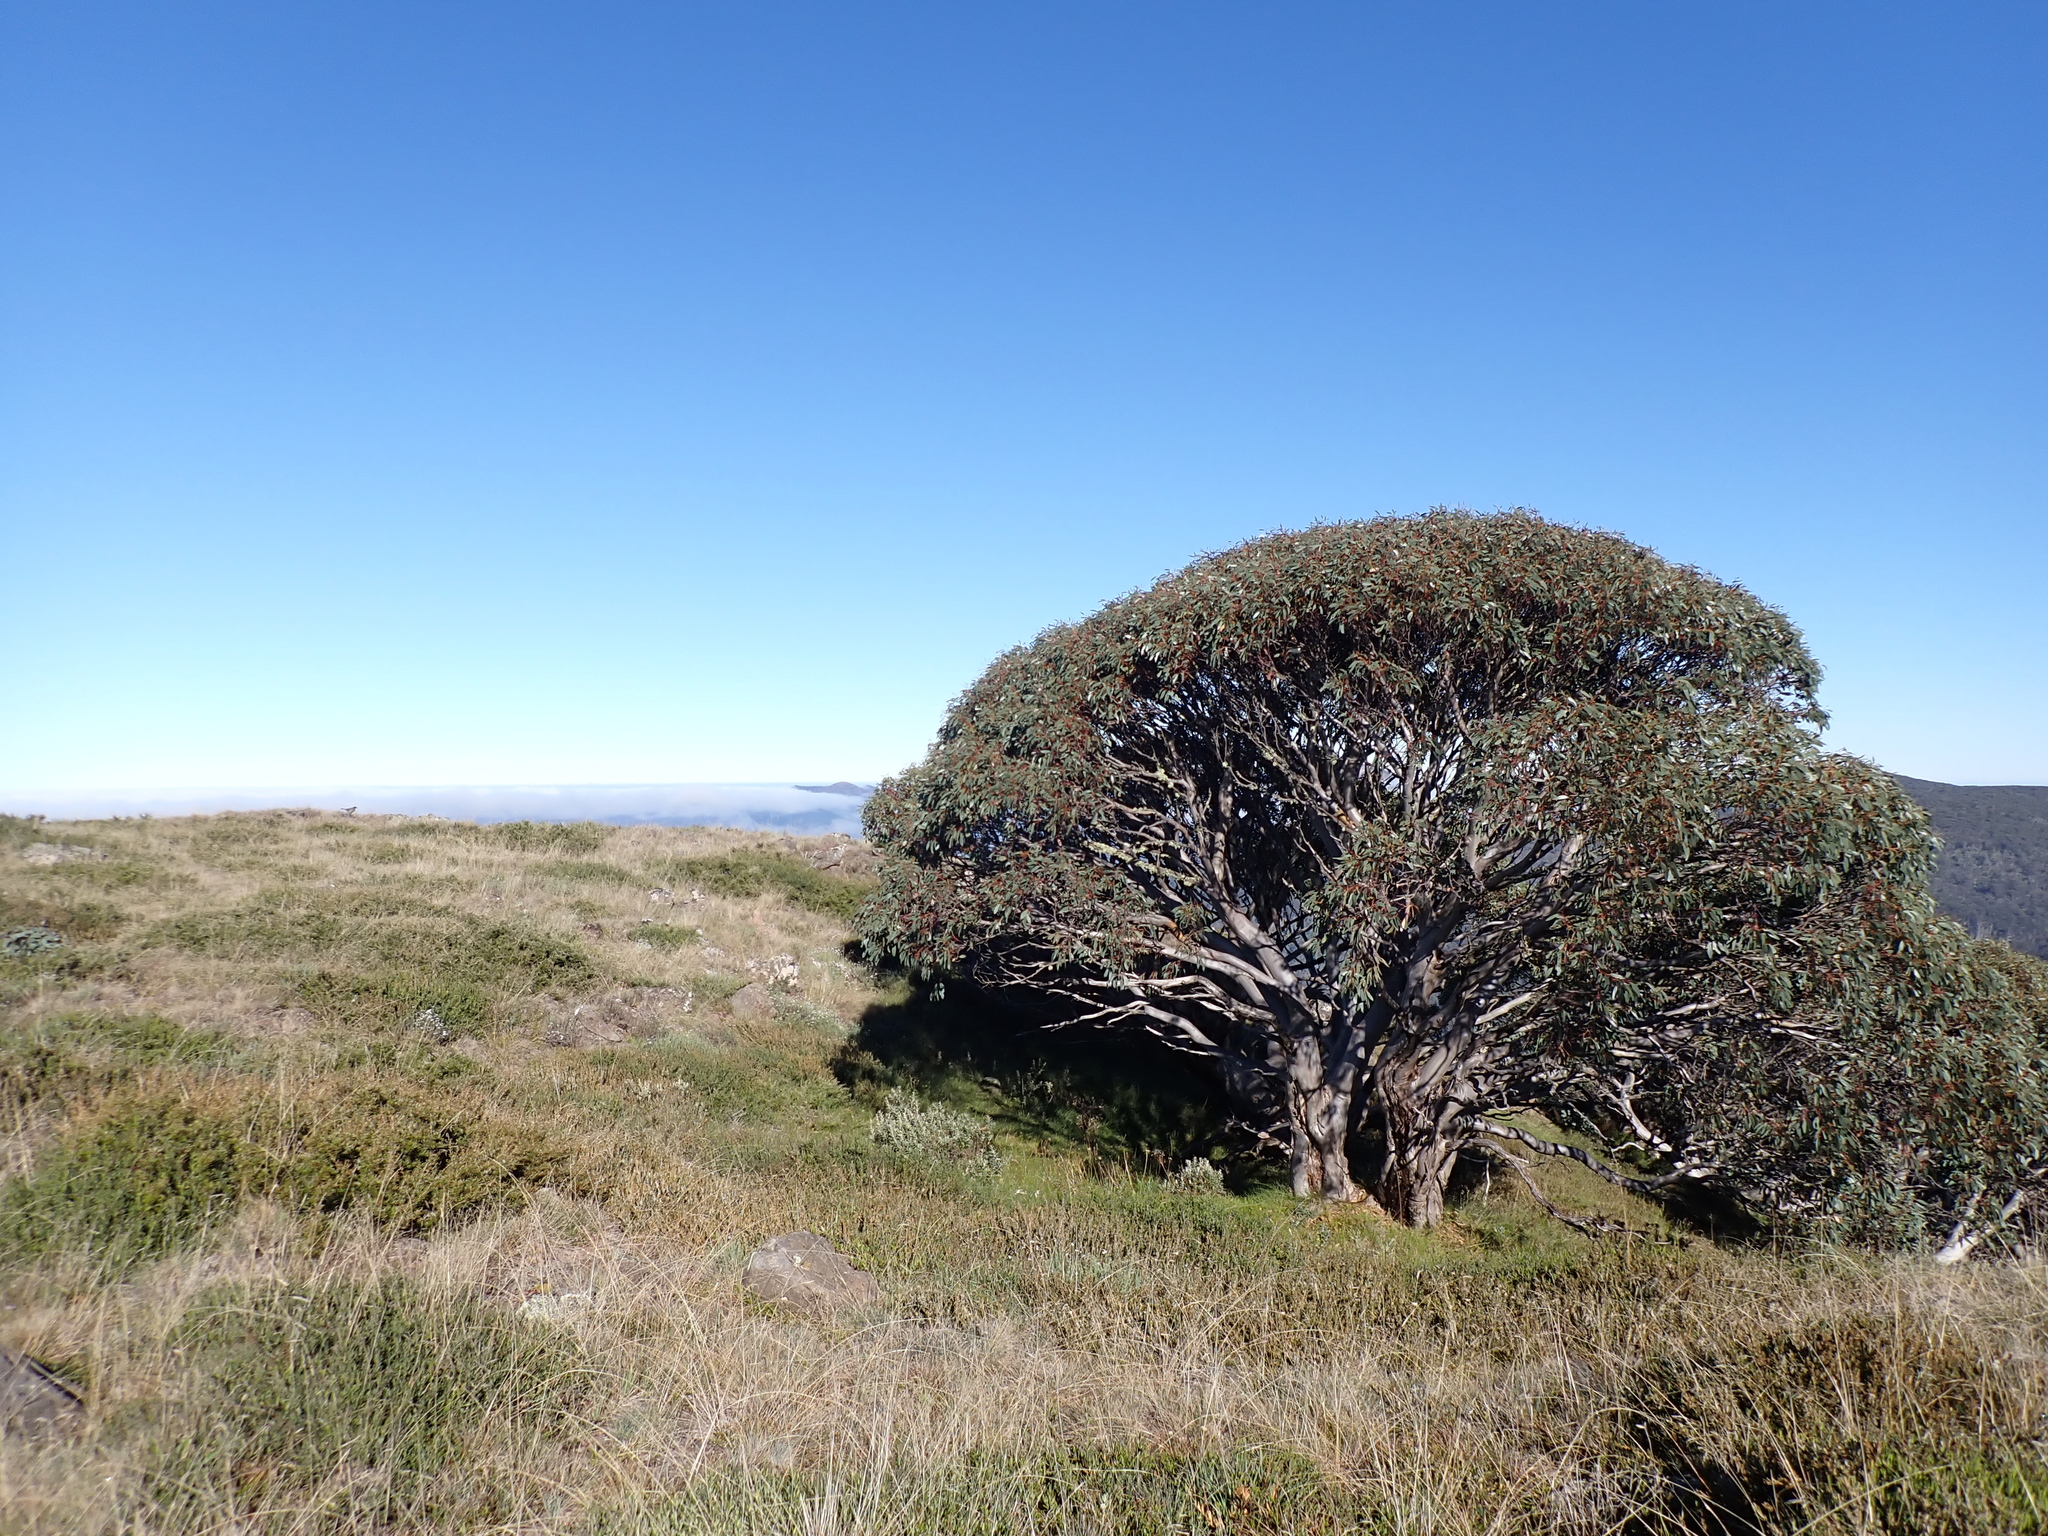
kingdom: Plantae
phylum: Tracheophyta
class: Magnoliopsida
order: Myrtales
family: Myrtaceae
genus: Eucalyptus
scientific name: Eucalyptus pauciflora
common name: Snow gum
